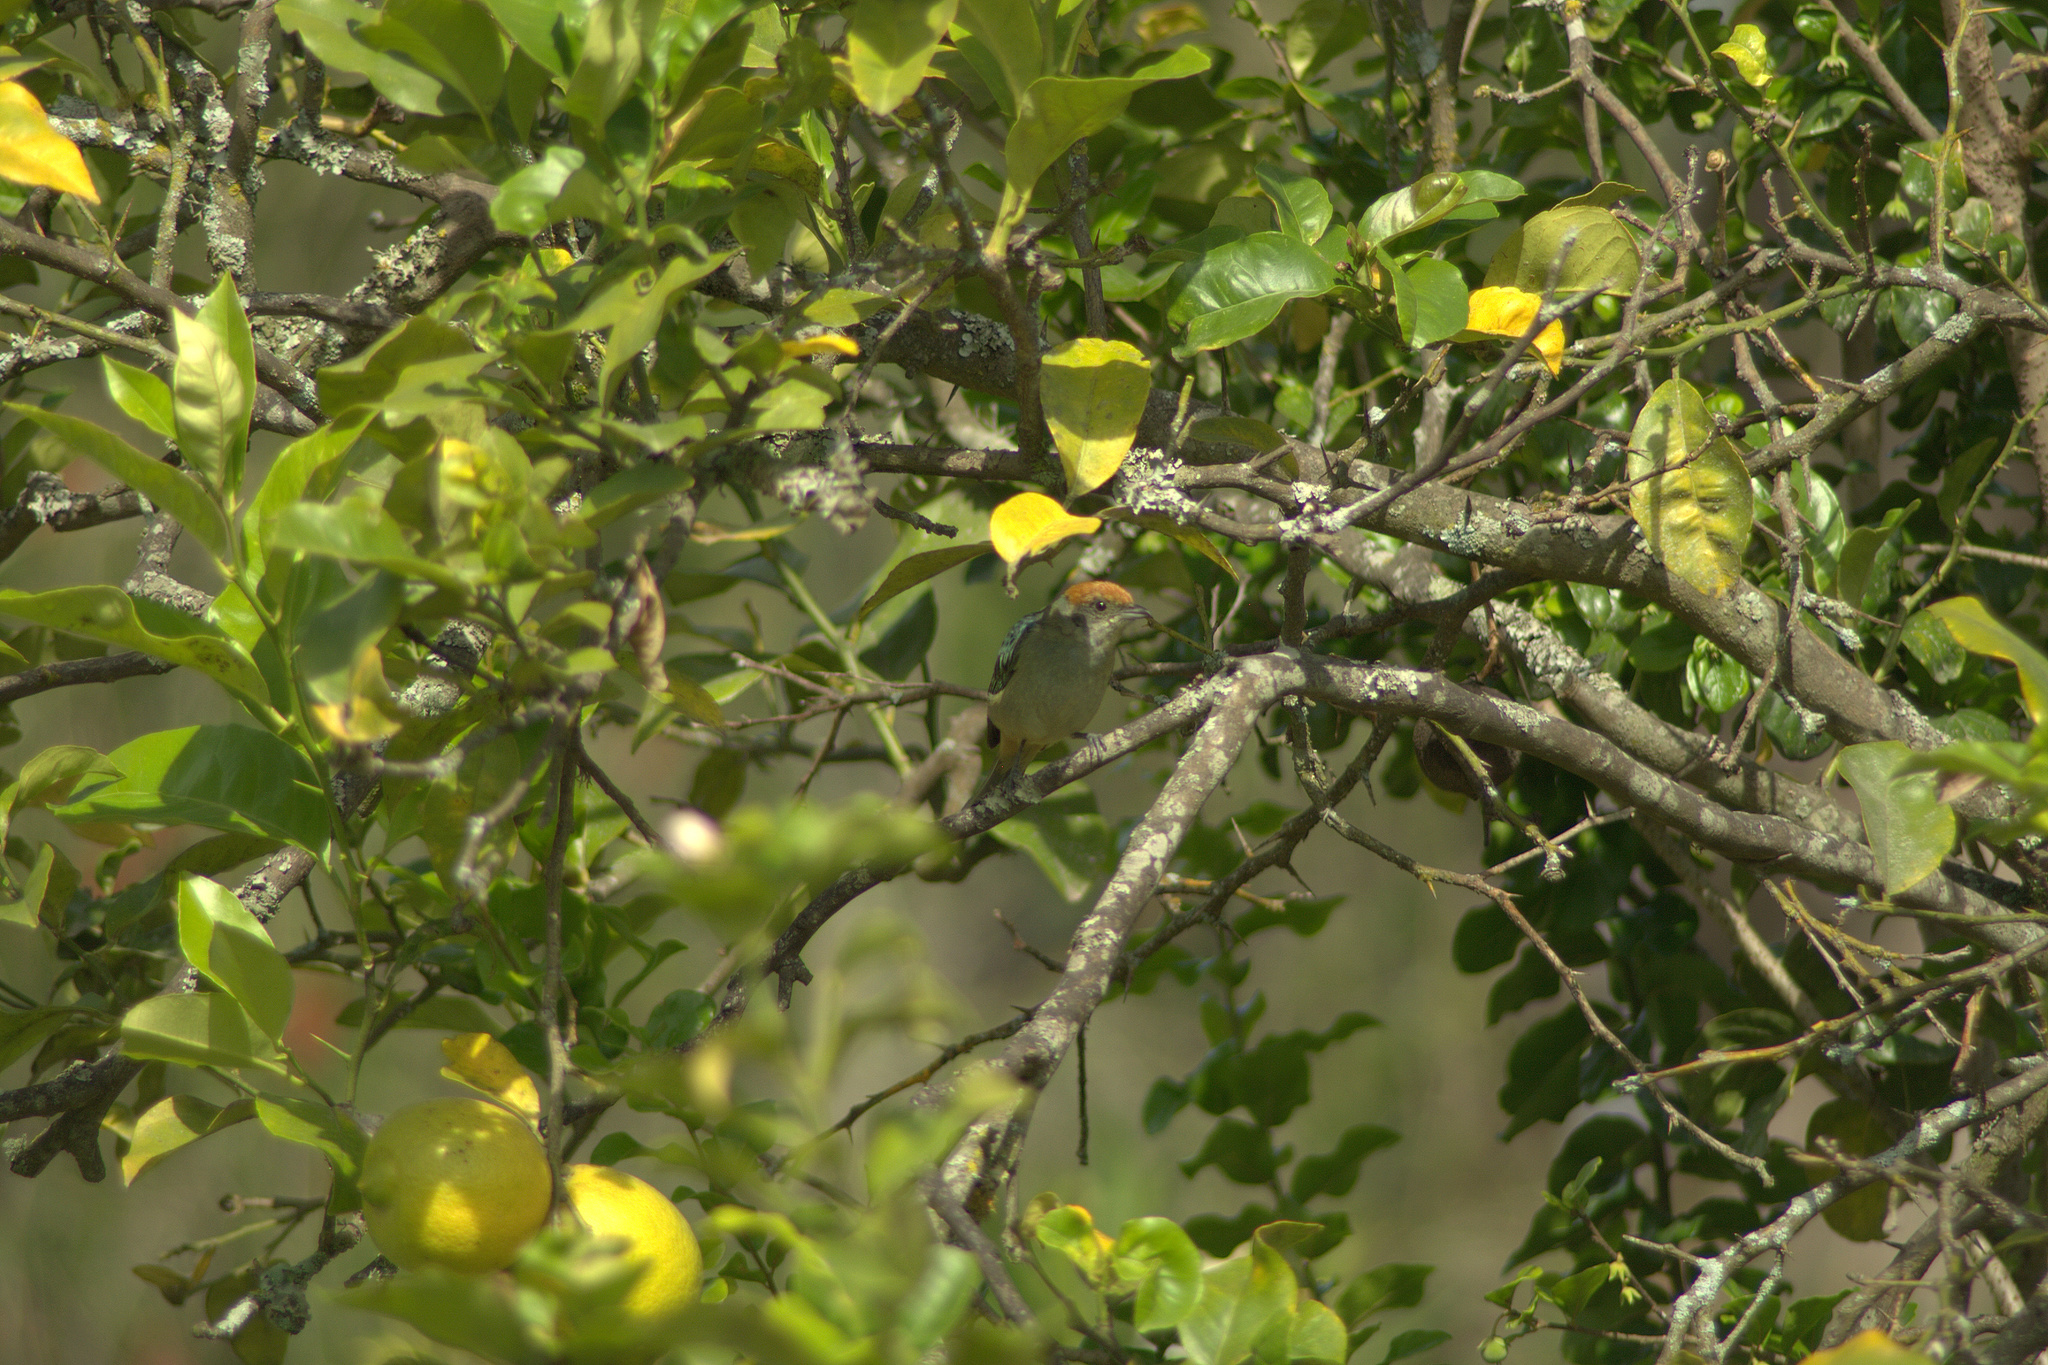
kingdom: Animalia
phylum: Chordata
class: Aves
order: Passeriformes
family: Thraupidae
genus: Stilpnia
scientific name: Stilpnia vitriolina
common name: Scrub tanager
